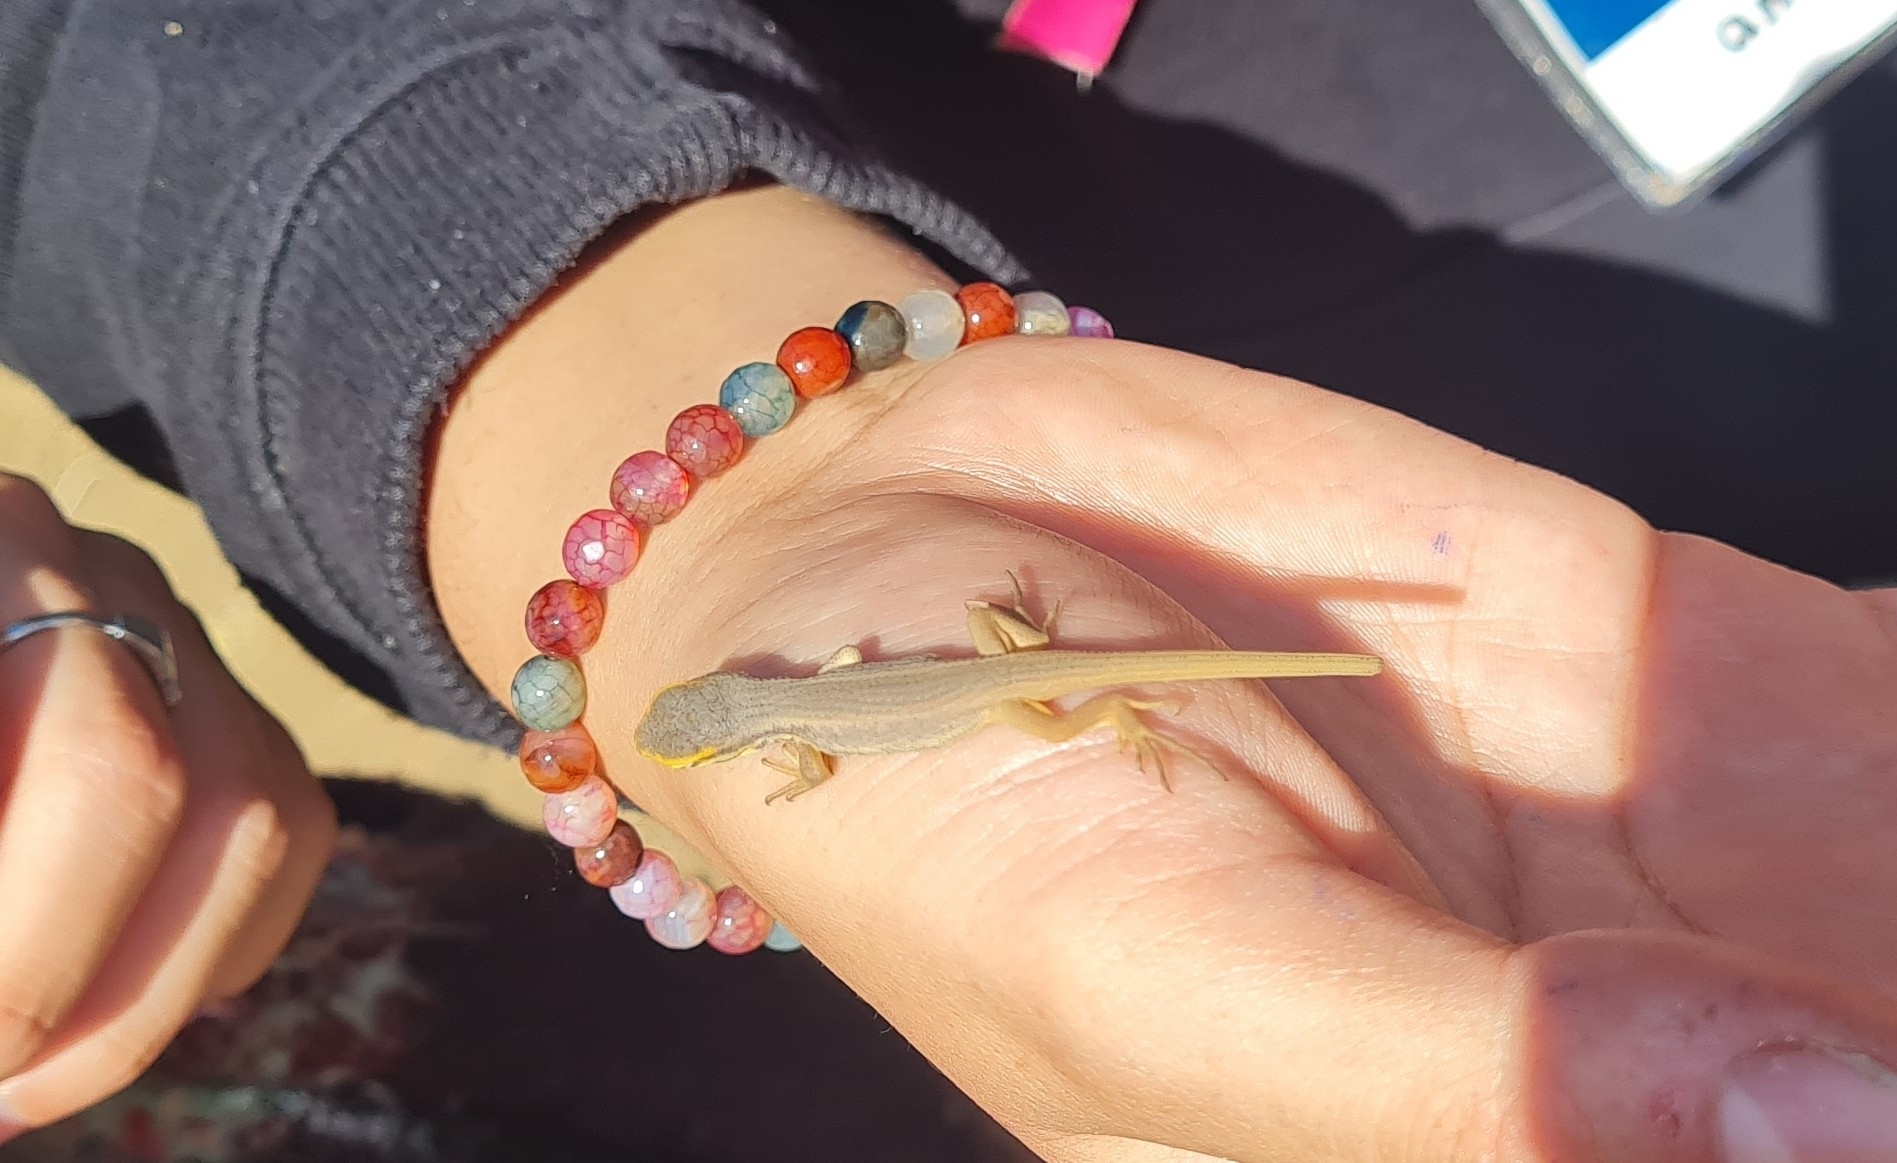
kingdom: Animalia
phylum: Chordata
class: Squamata
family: Liolaemidae
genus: Liolaemus
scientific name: Liolaemus chiliensis
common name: Chilean tree iguana
